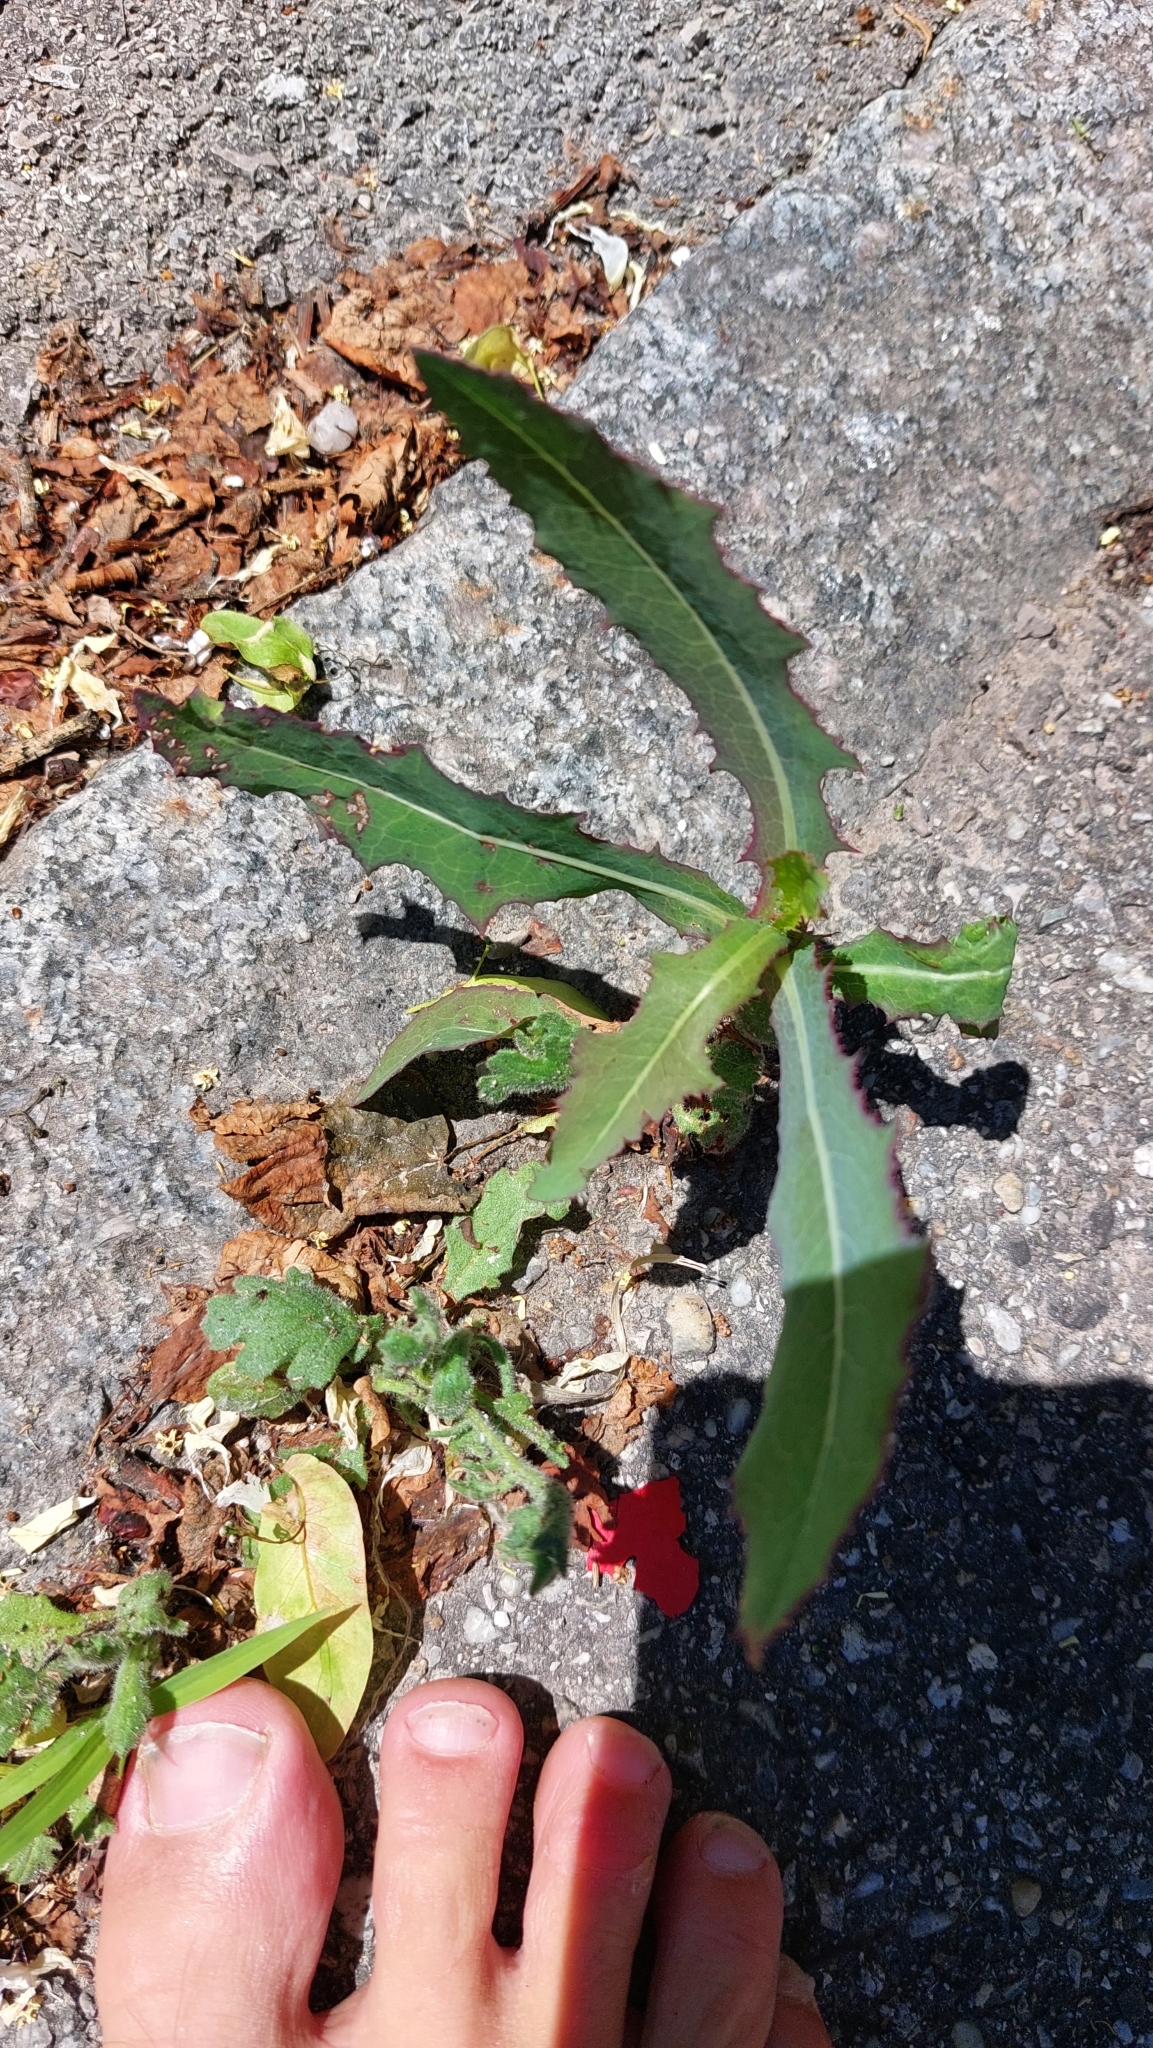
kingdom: Plantae
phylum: Tracheophyta
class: Magnoliopsida
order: Asterales
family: Asteraceae
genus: Lactuca
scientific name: Lactuca serriola
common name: Prickly lettuce
